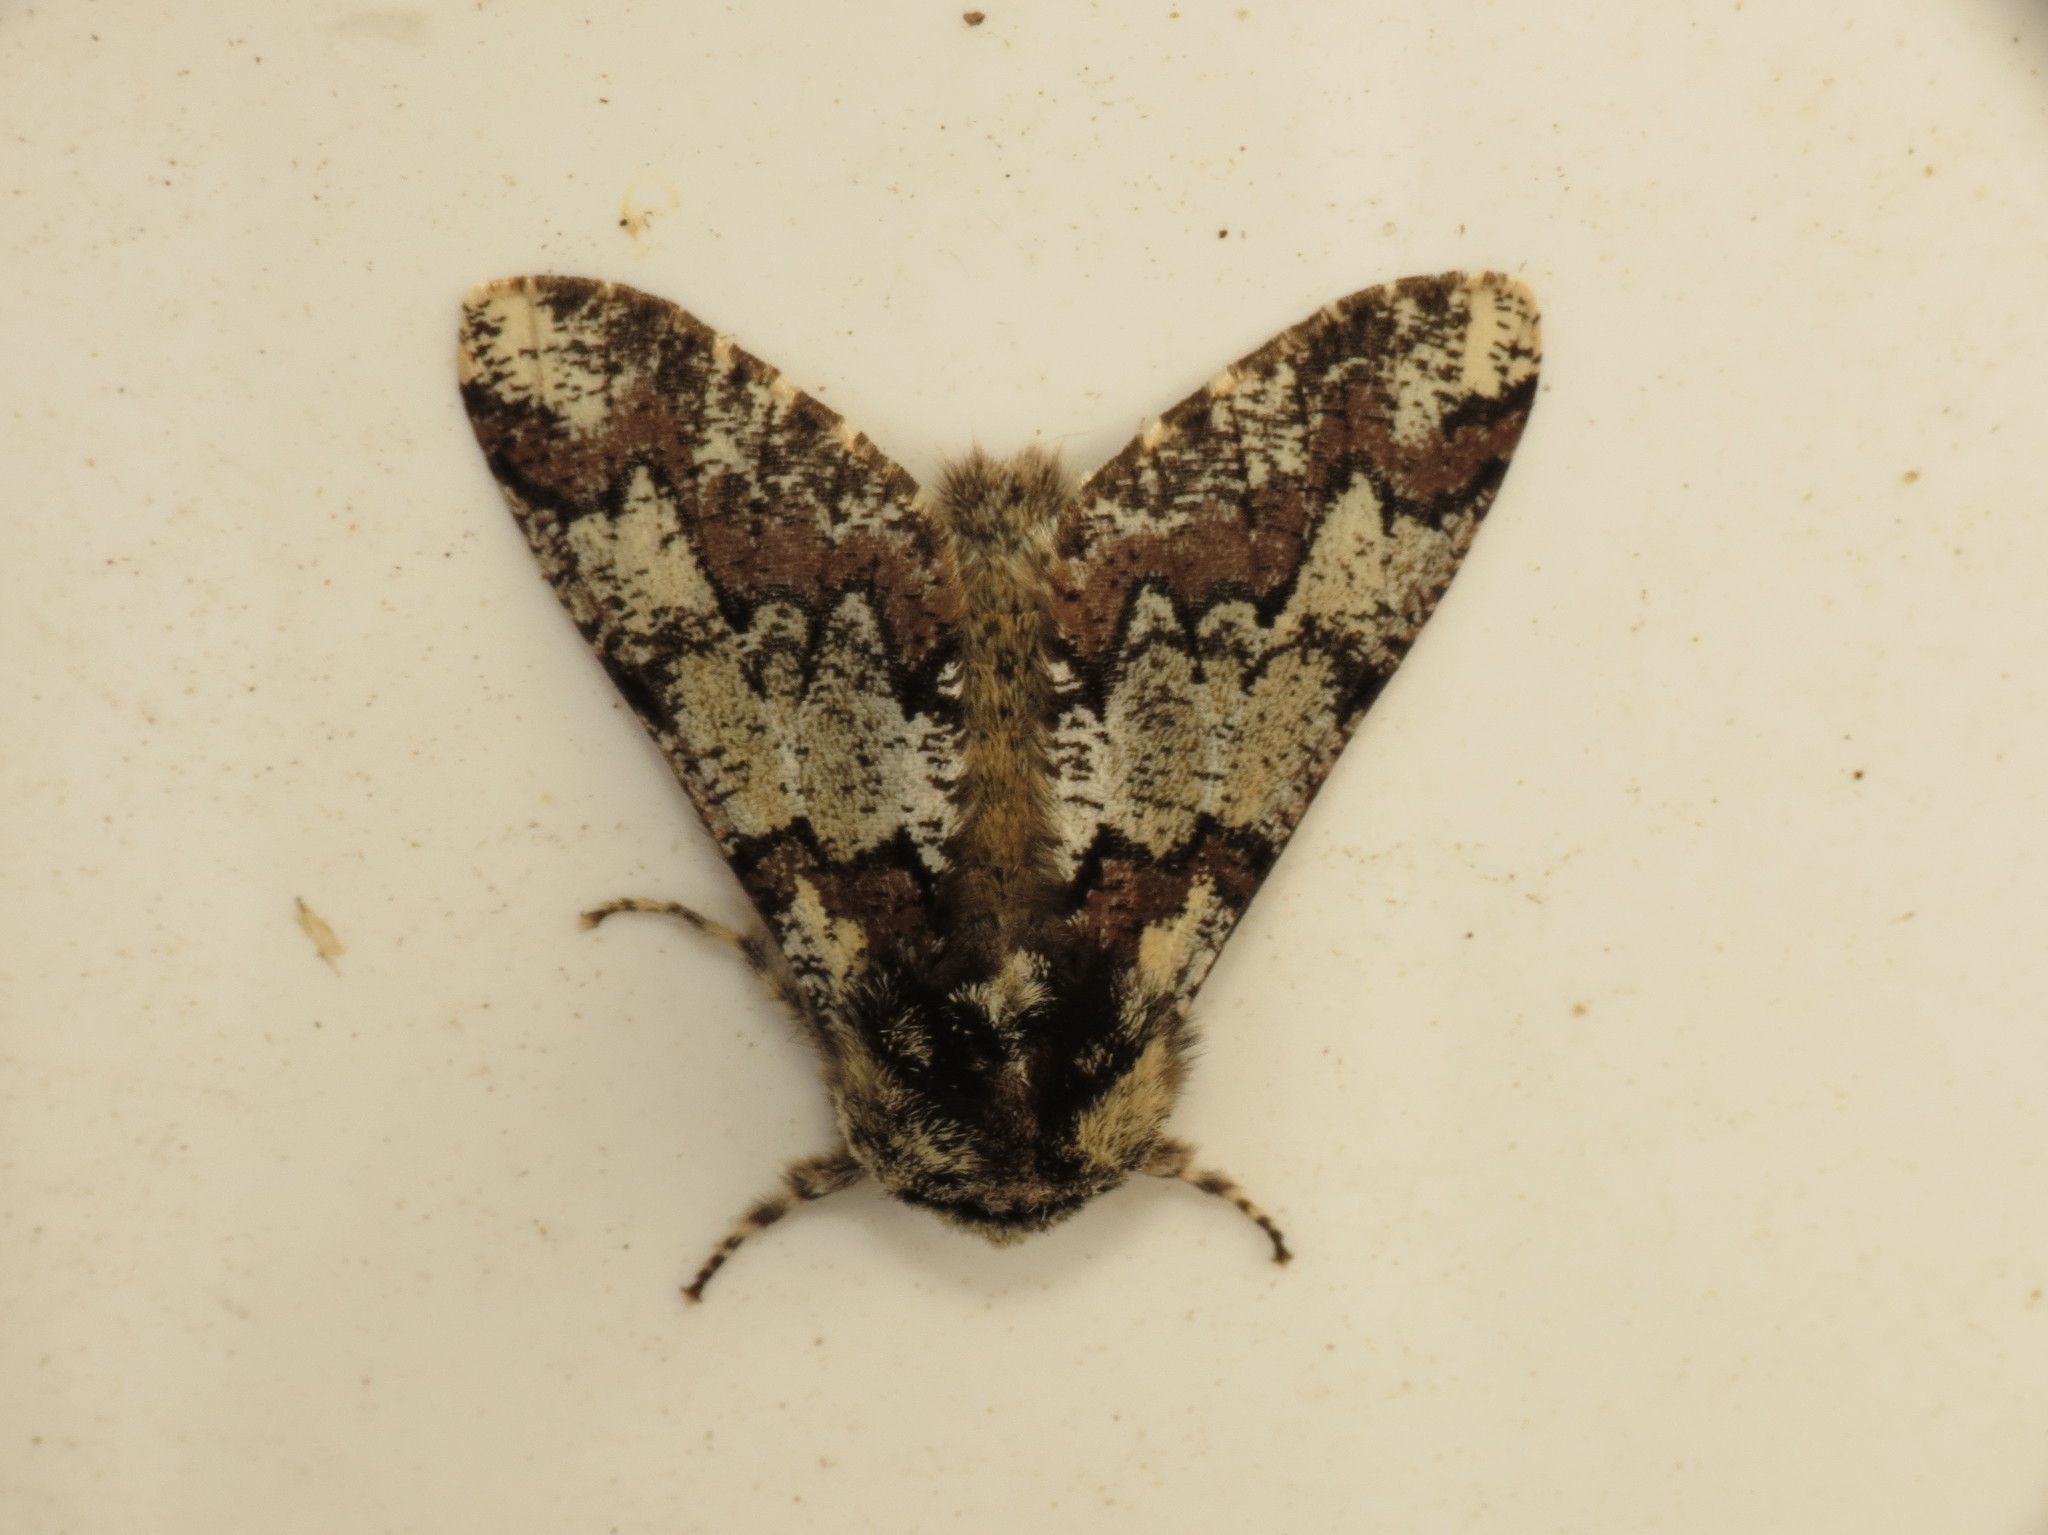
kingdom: Animalia
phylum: Arthropoda
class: Insecta
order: Lepidoptera
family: Geometridae
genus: Biston
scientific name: Biston strataria
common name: Oak beauty
